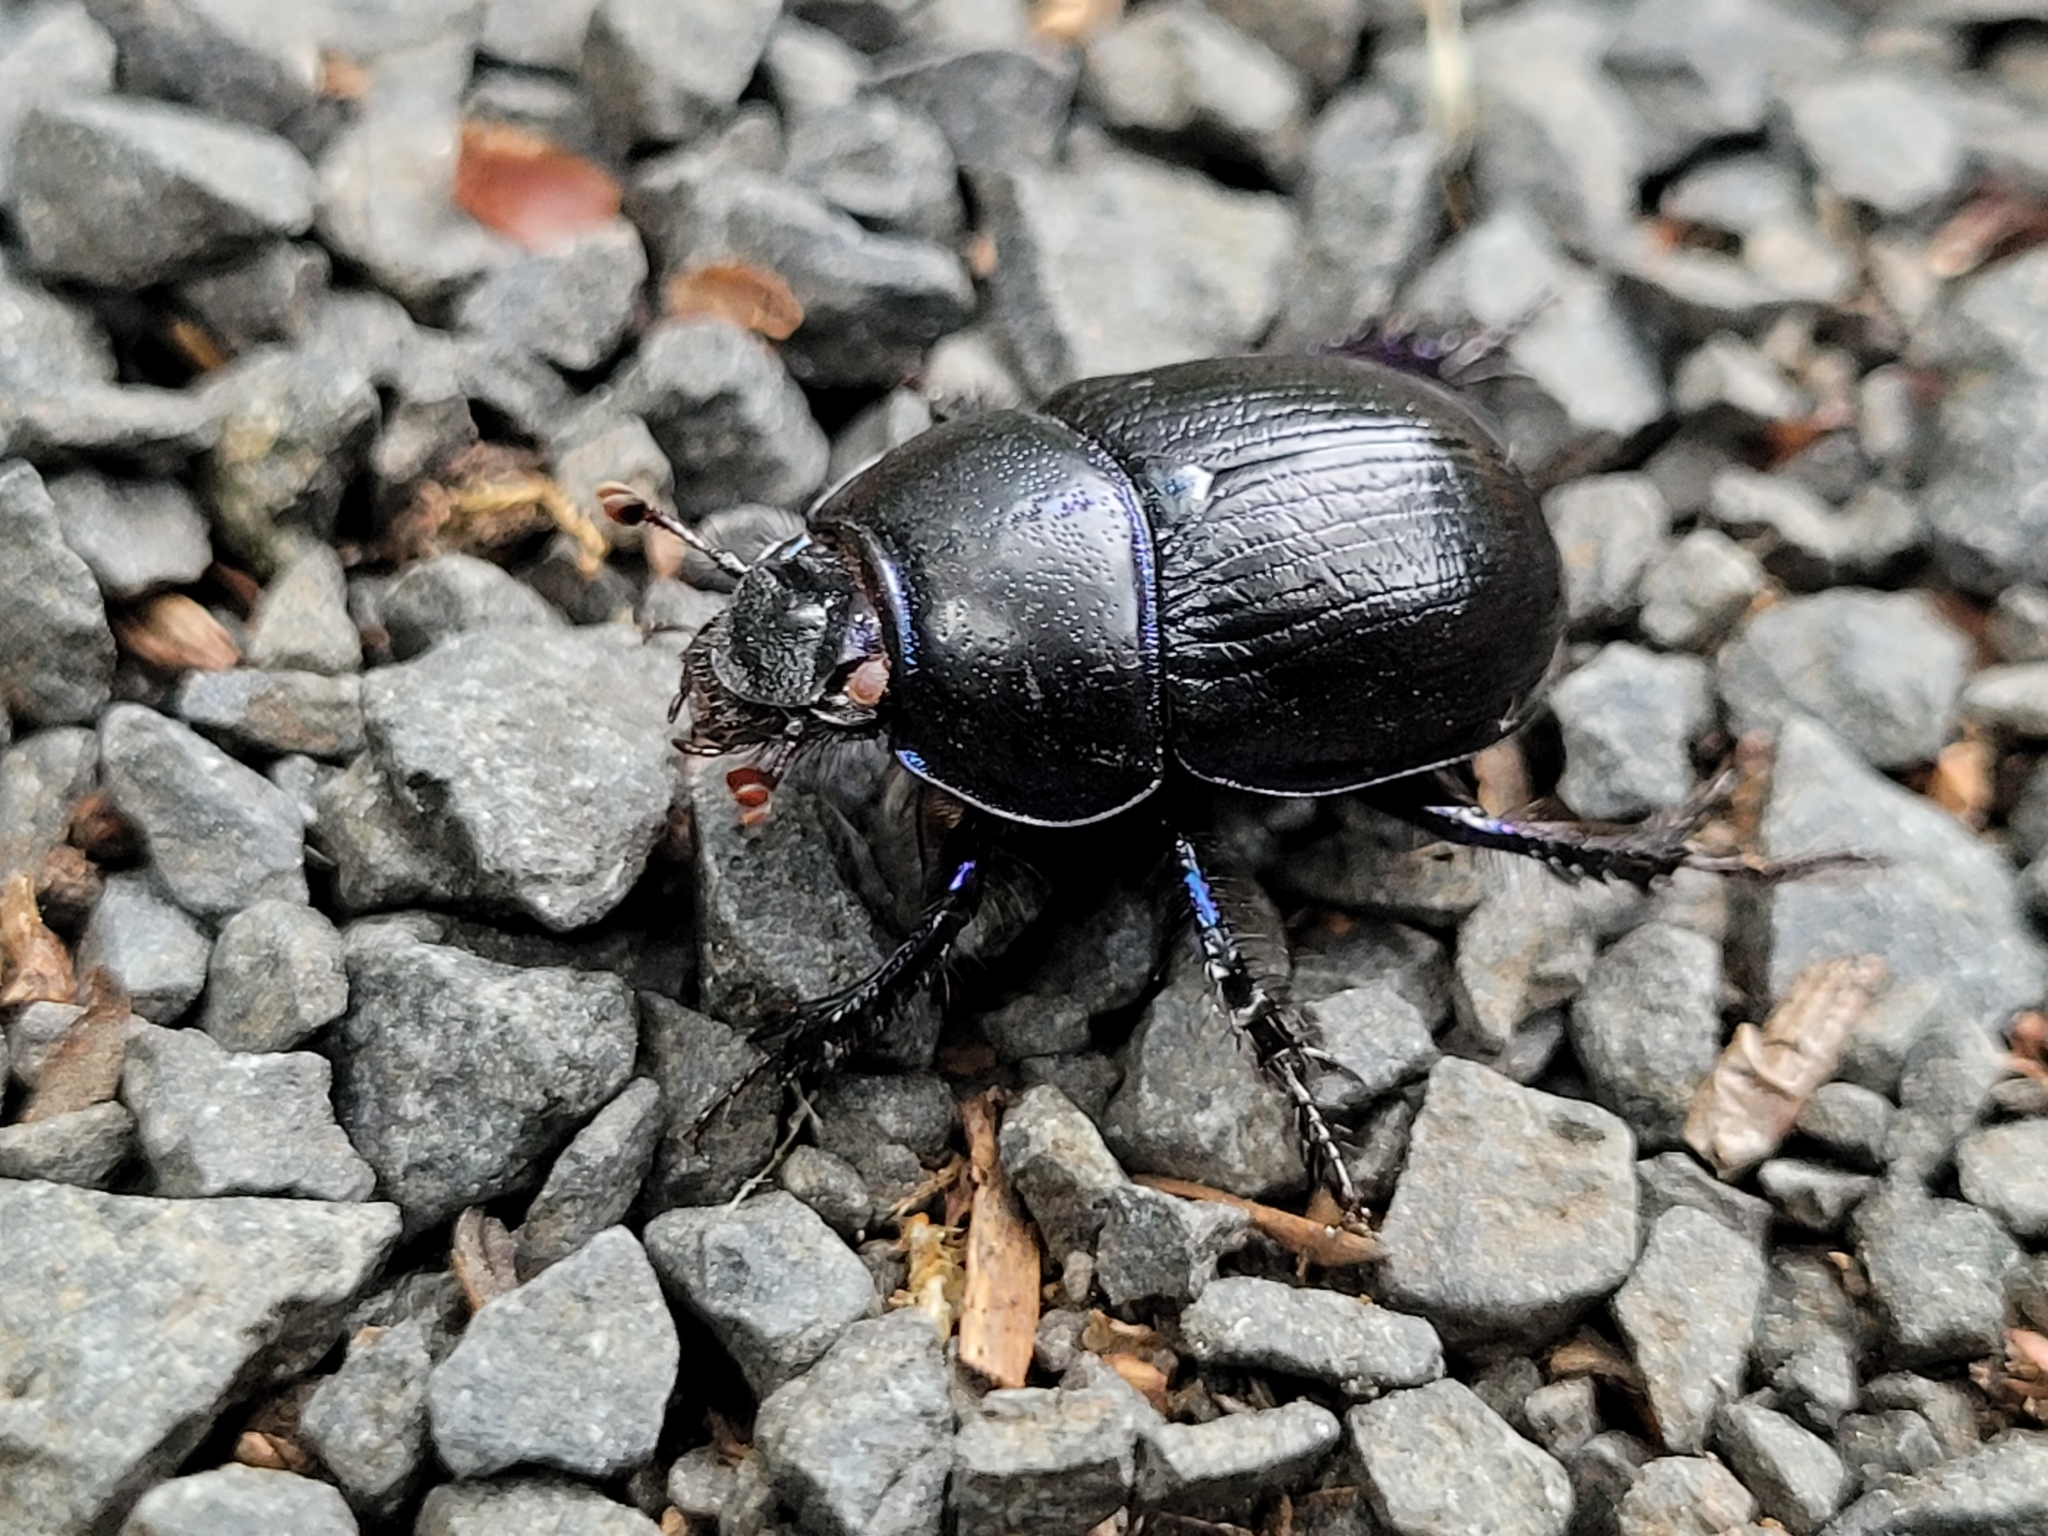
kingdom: Animalia
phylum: Arthropoda
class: Insecta
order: Coleoptera
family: Geotrupidae
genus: Anoplotrupes
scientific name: Anoplotrupes stercorosus
